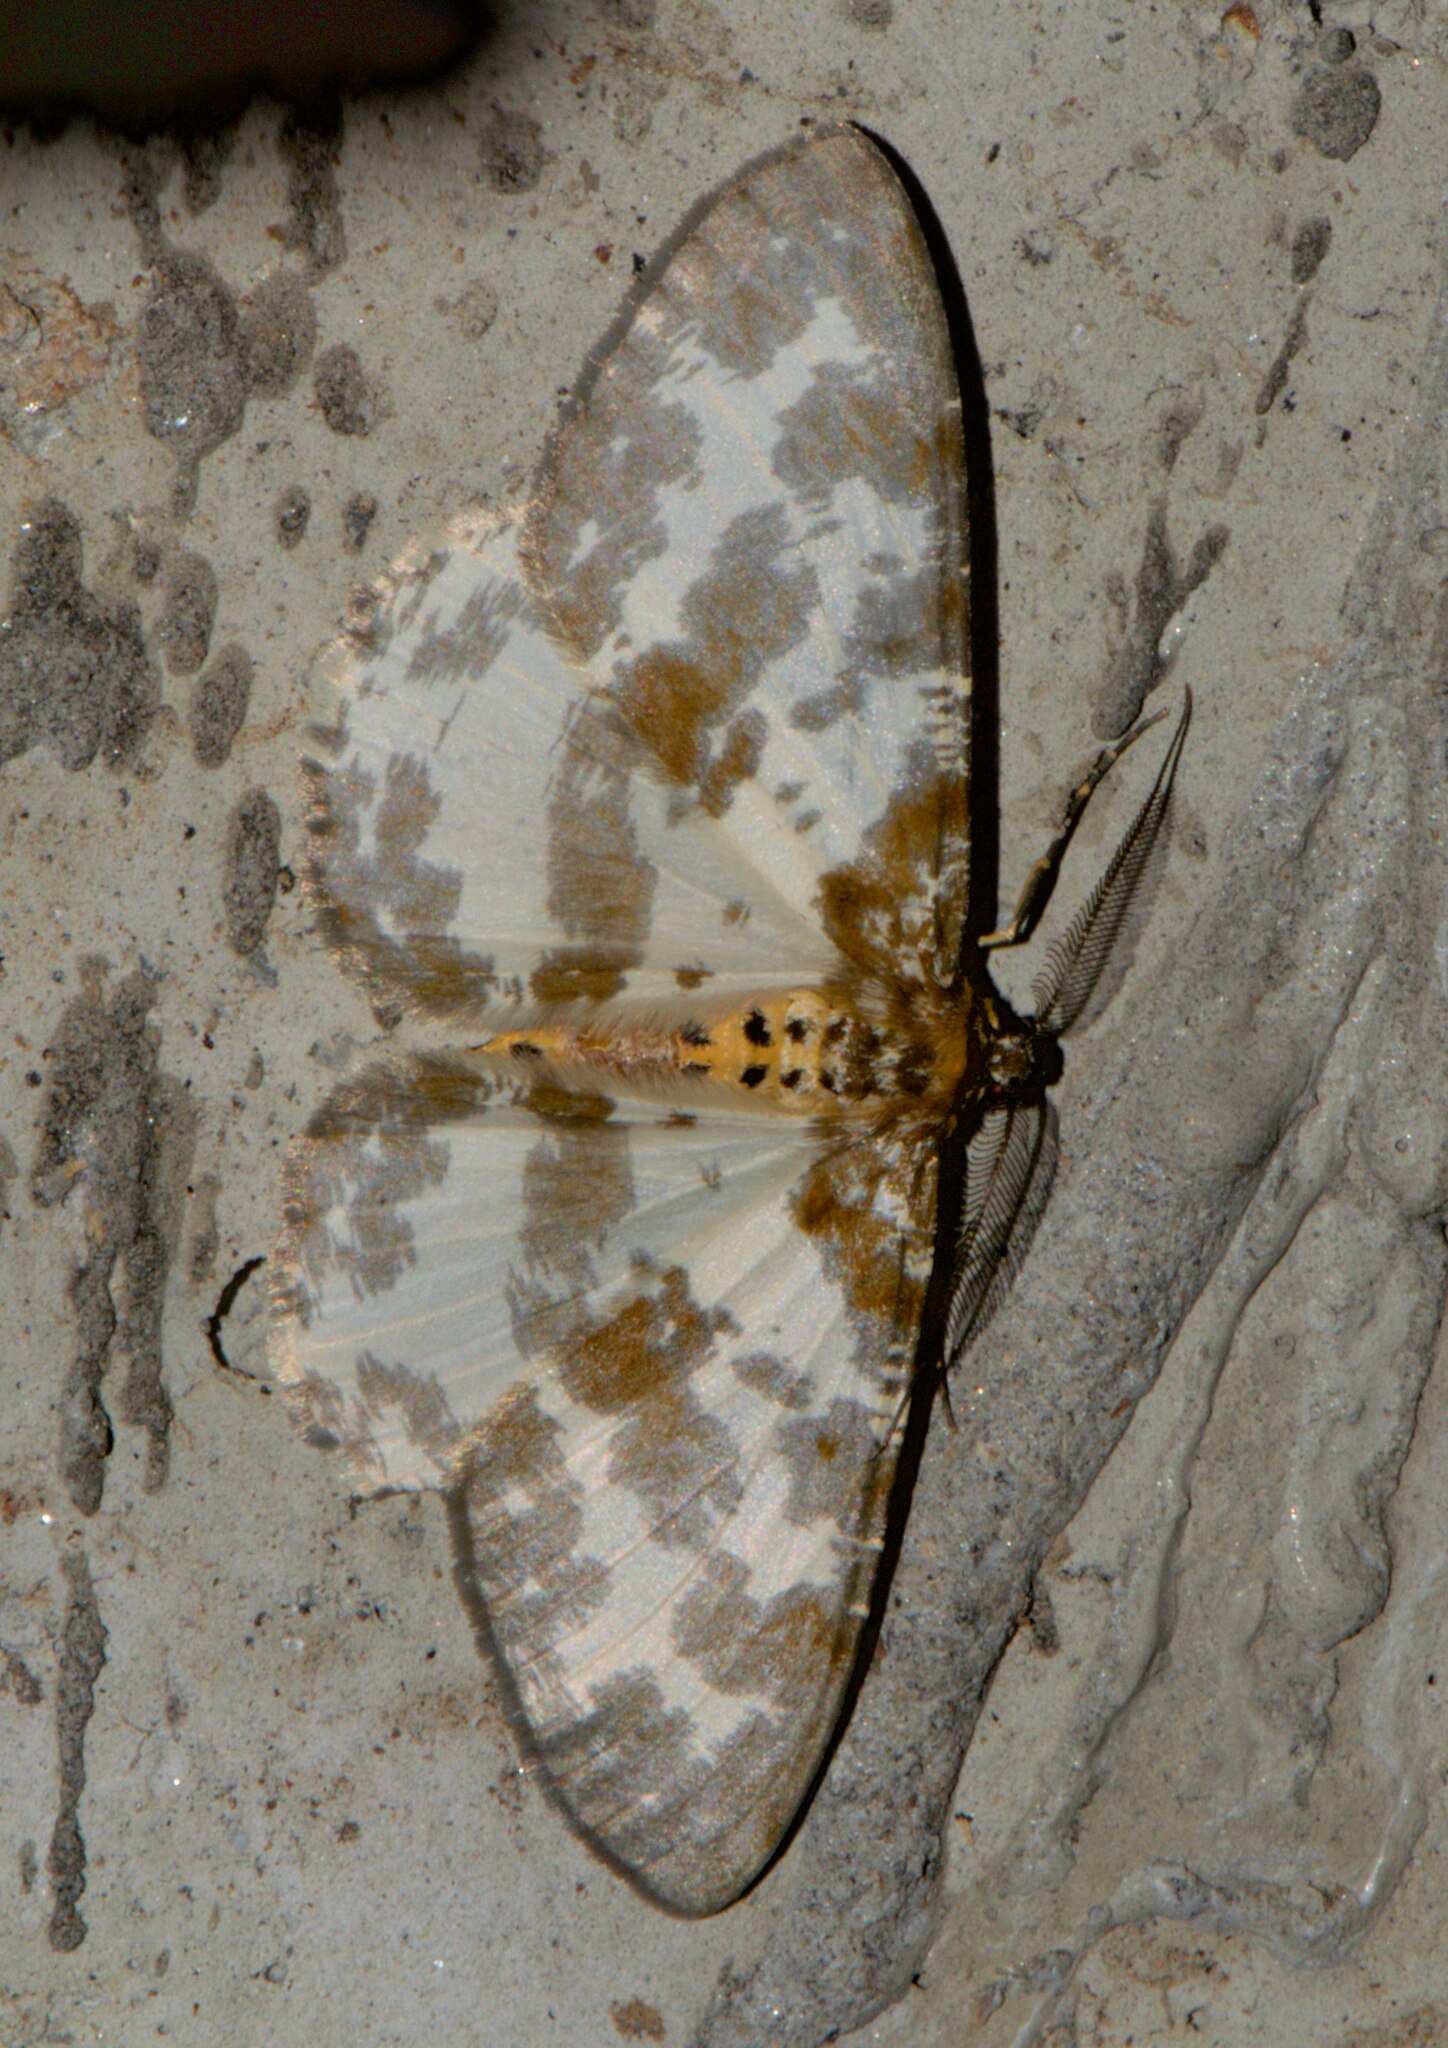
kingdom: Animalia
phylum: Arthropoda
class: Insecta
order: Lepidoptera
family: Geometridae
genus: Hypomecis
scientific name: Hypomecis fasciata
